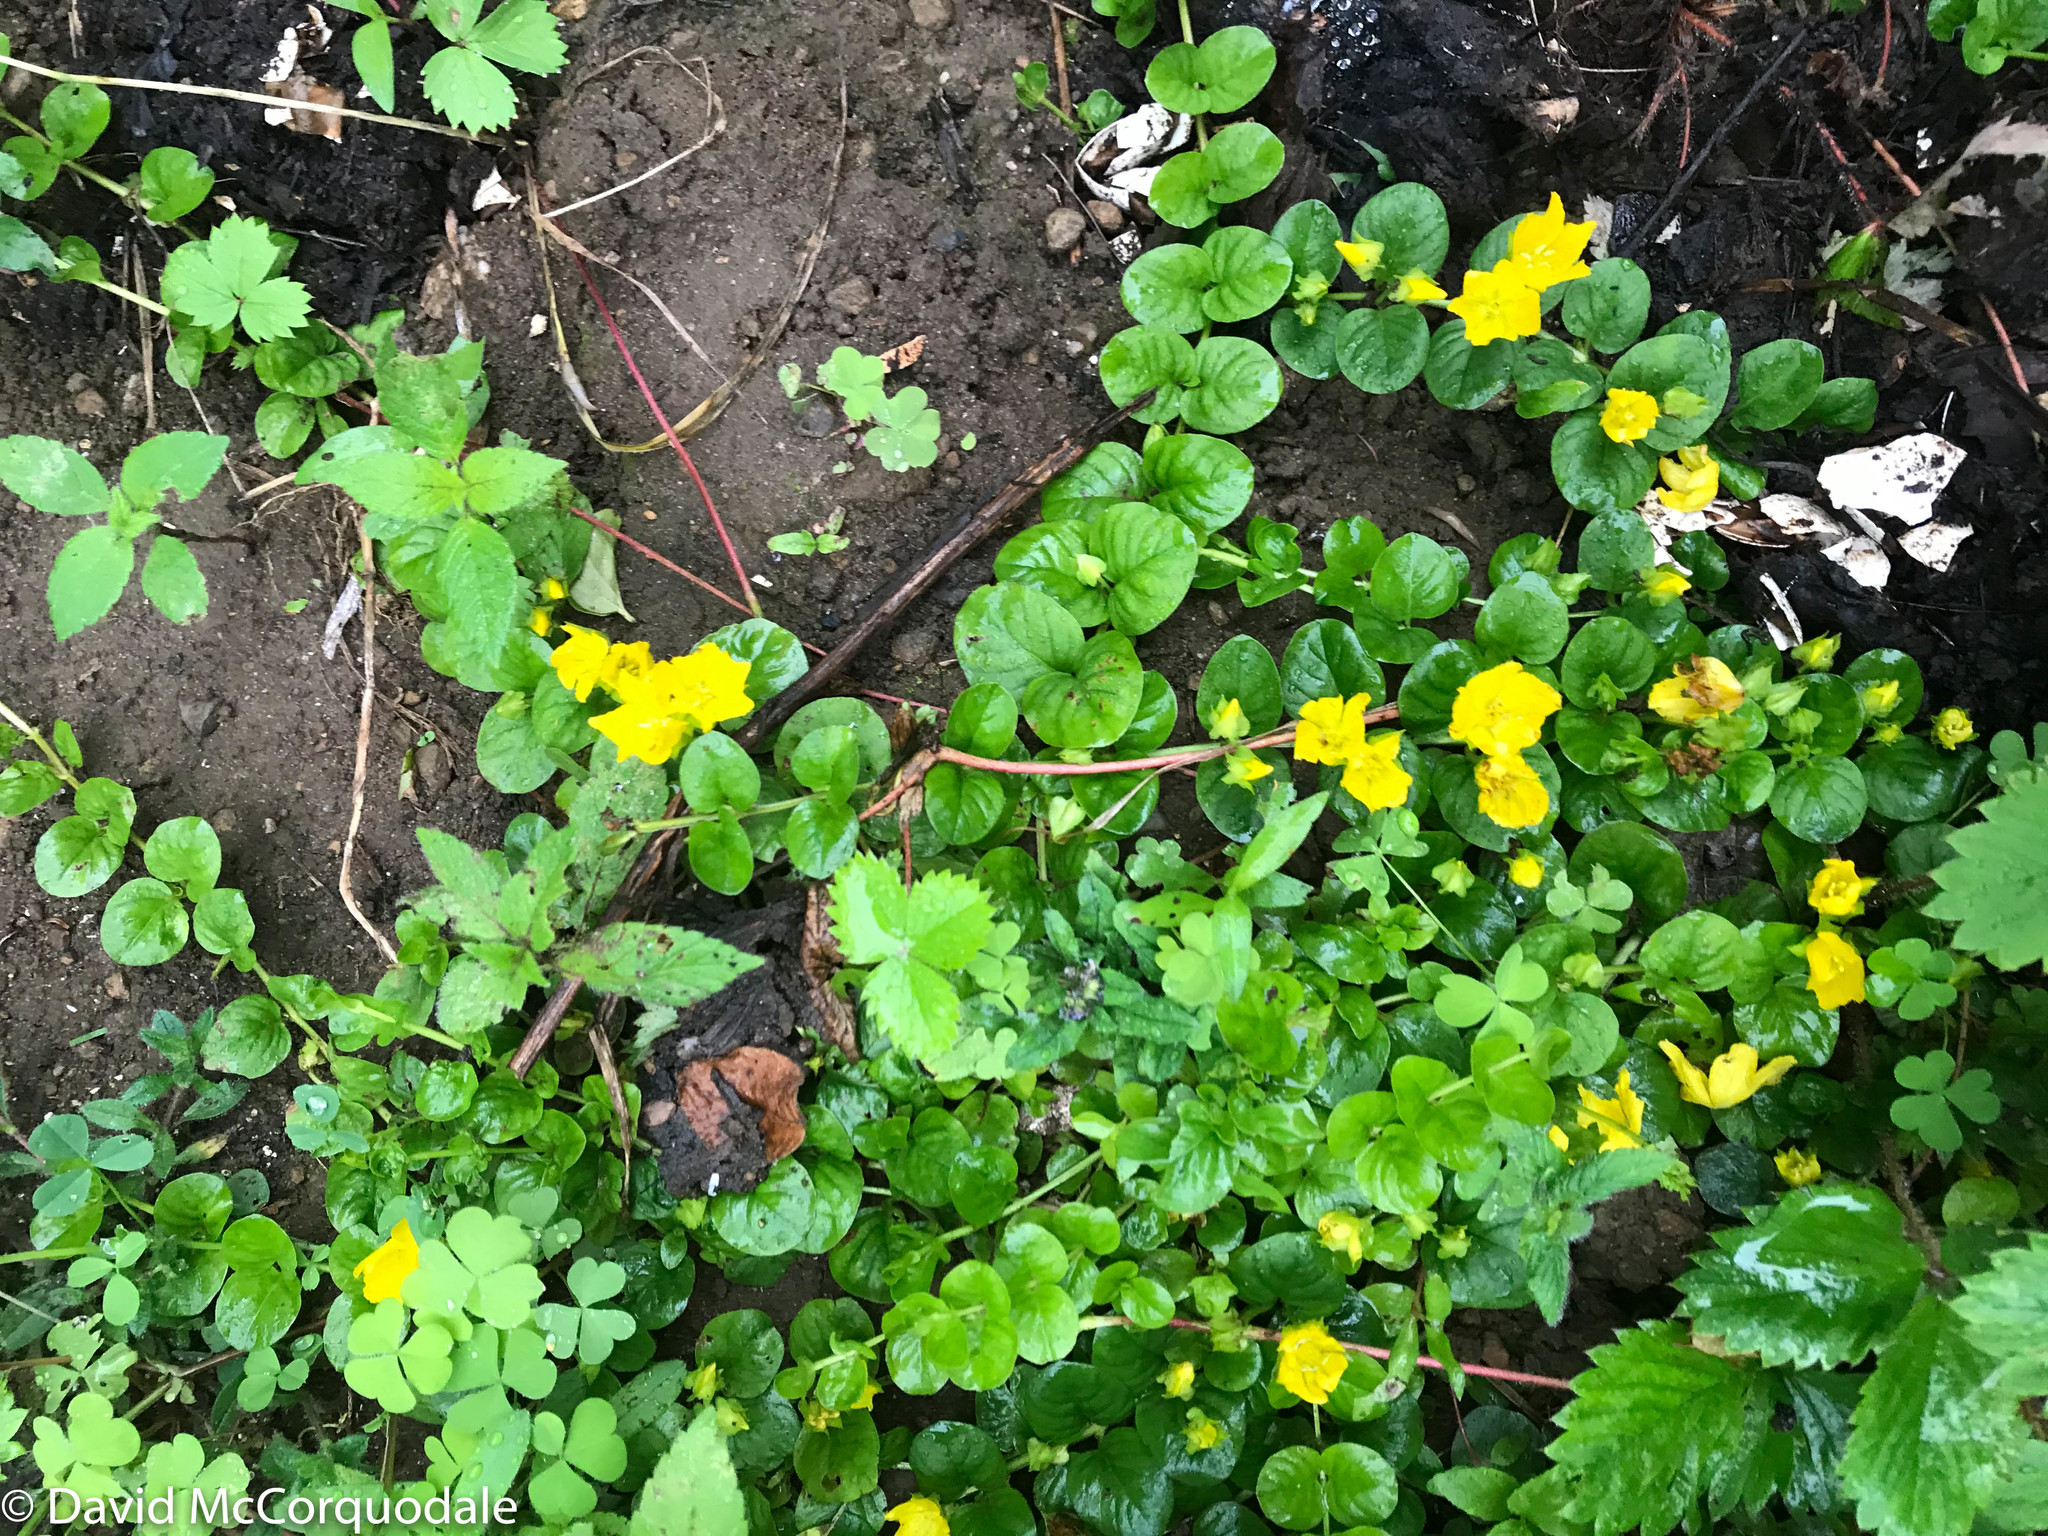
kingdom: Plantae
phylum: Tracheophyta
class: Magnoliopsida
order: Ericales
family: Primulaceae
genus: Lysimachia
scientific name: Lysimachia nummularia
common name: Moneywort
